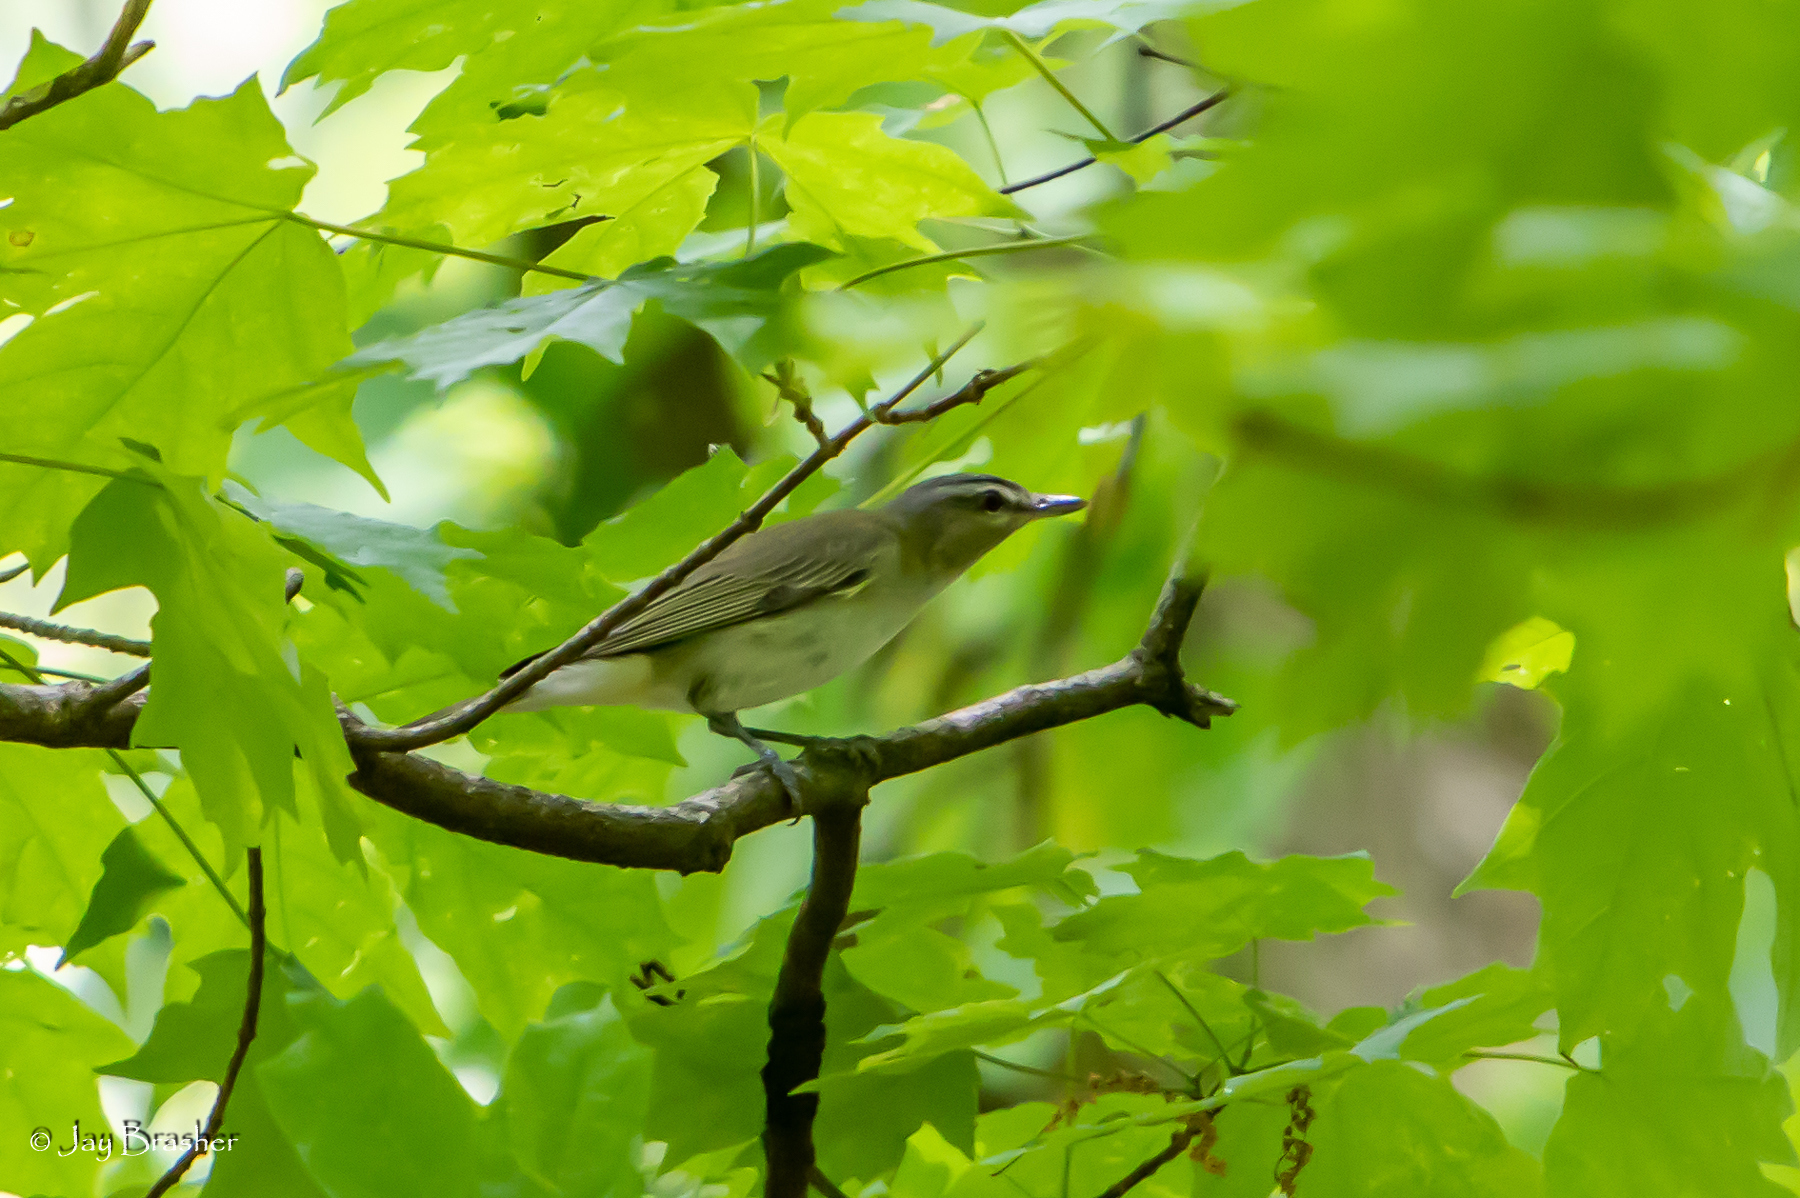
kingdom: Animalia
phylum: Chordata
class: Aves
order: Passeriformes
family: Vireonidae
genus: Vireo
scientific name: Vireo olivaceus
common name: Red-eyed vireo
